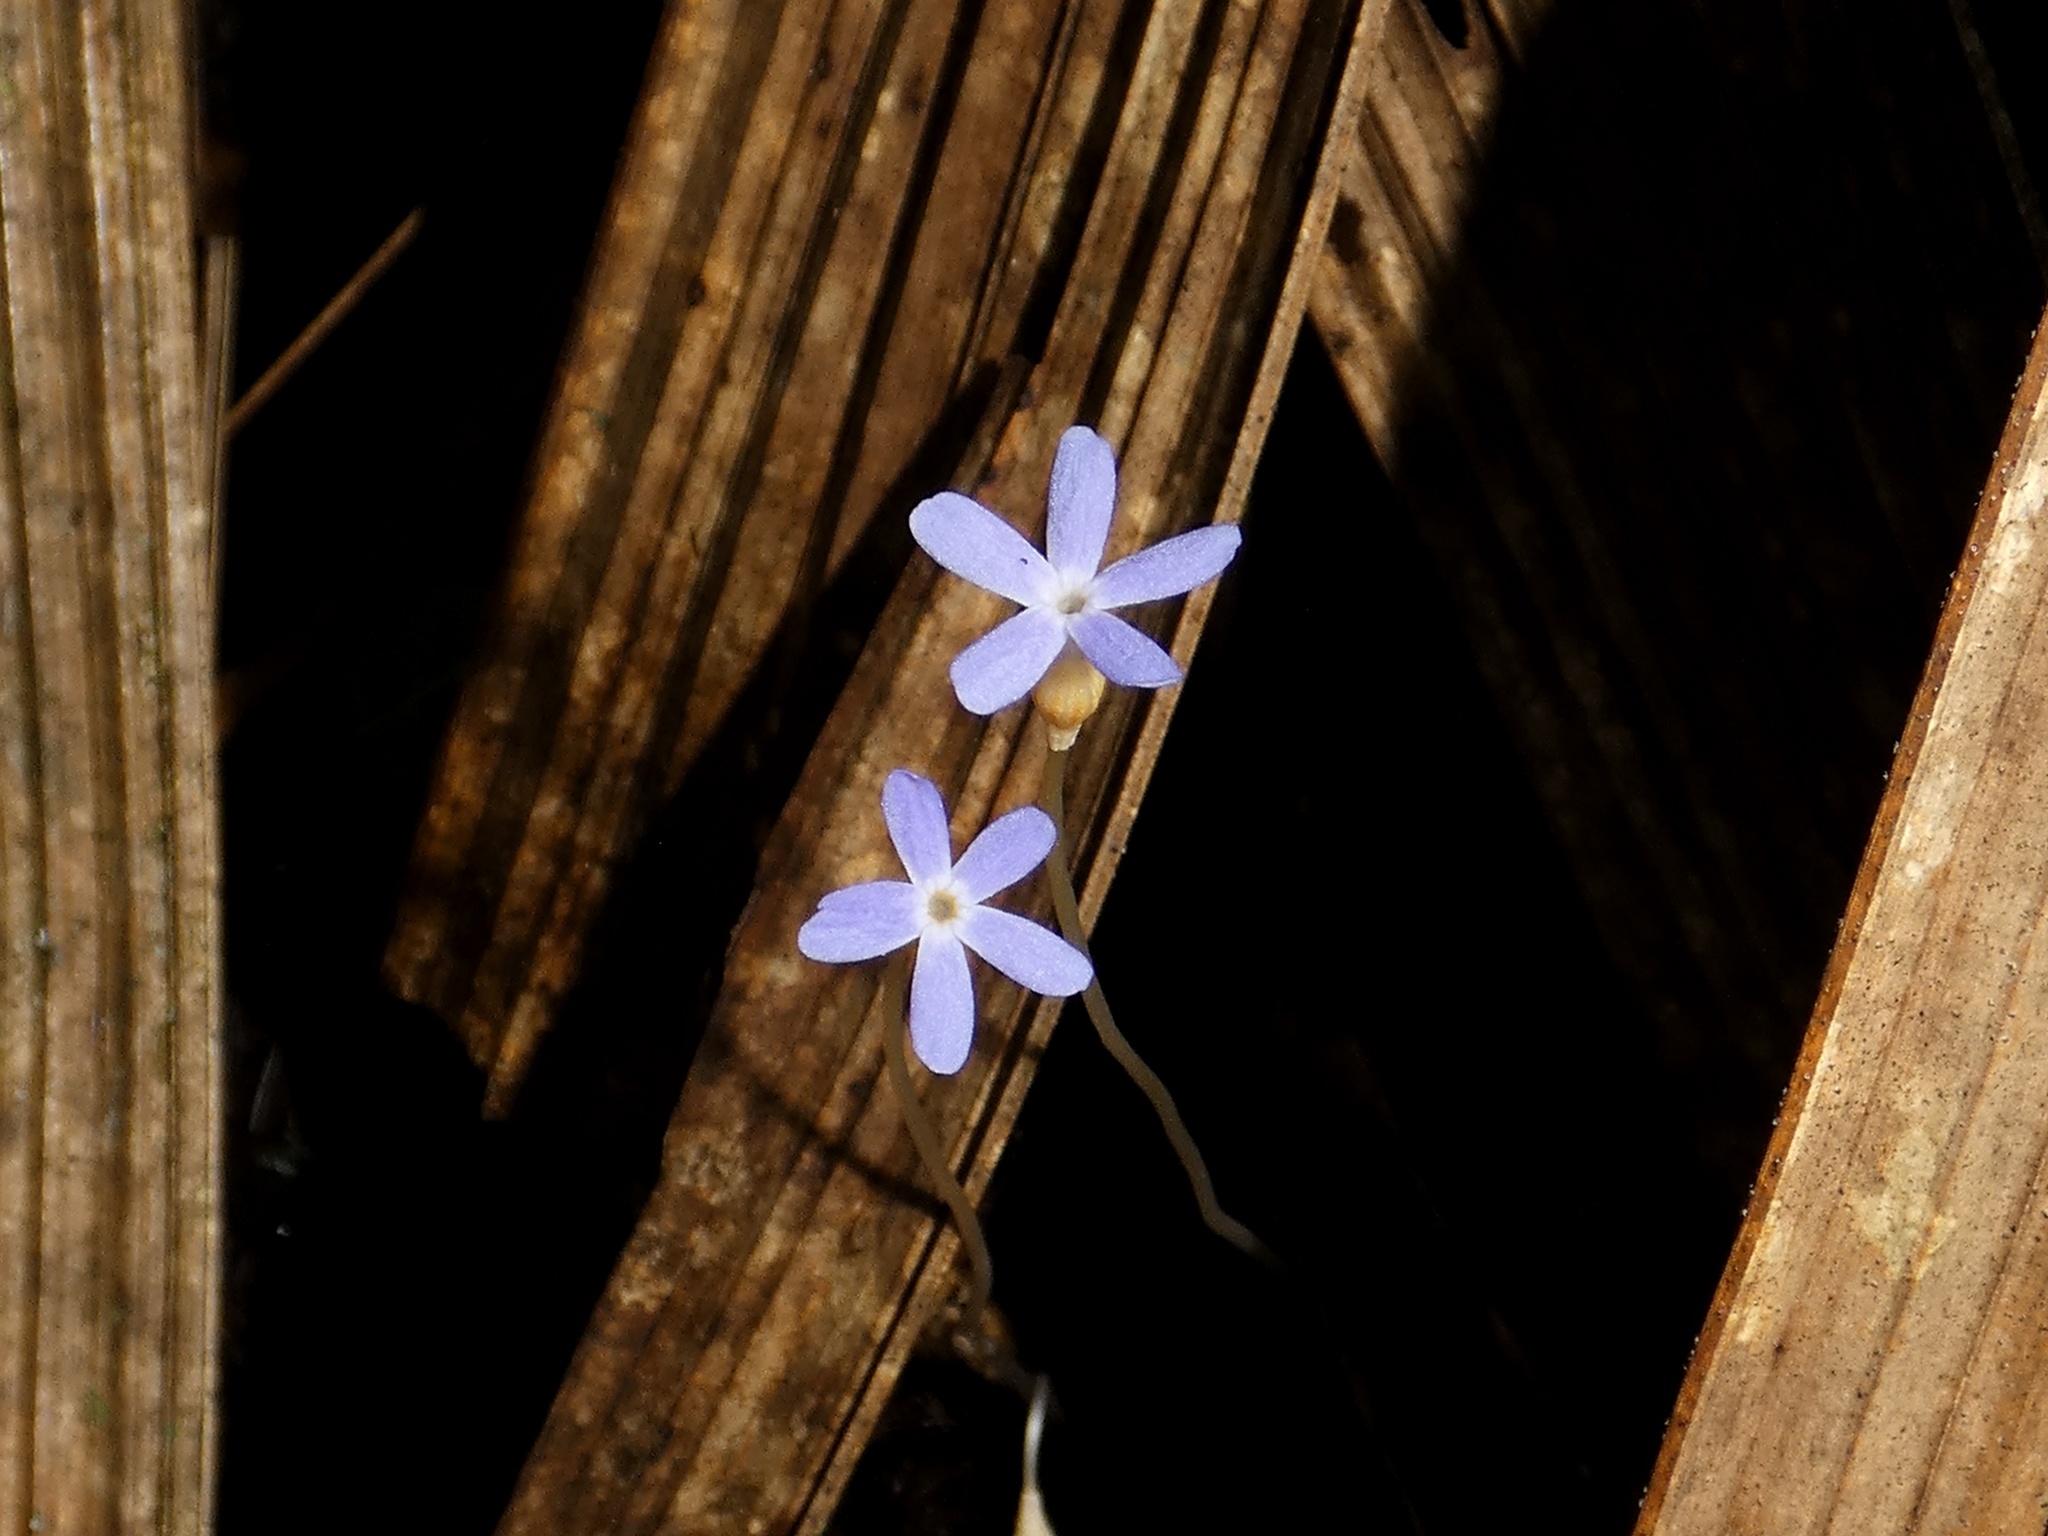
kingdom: Plantae
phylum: Tracheophyta
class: Magnoliopsida
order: Gentianales
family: Gentianaceae
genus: Voyria
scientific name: Voyria tenella
